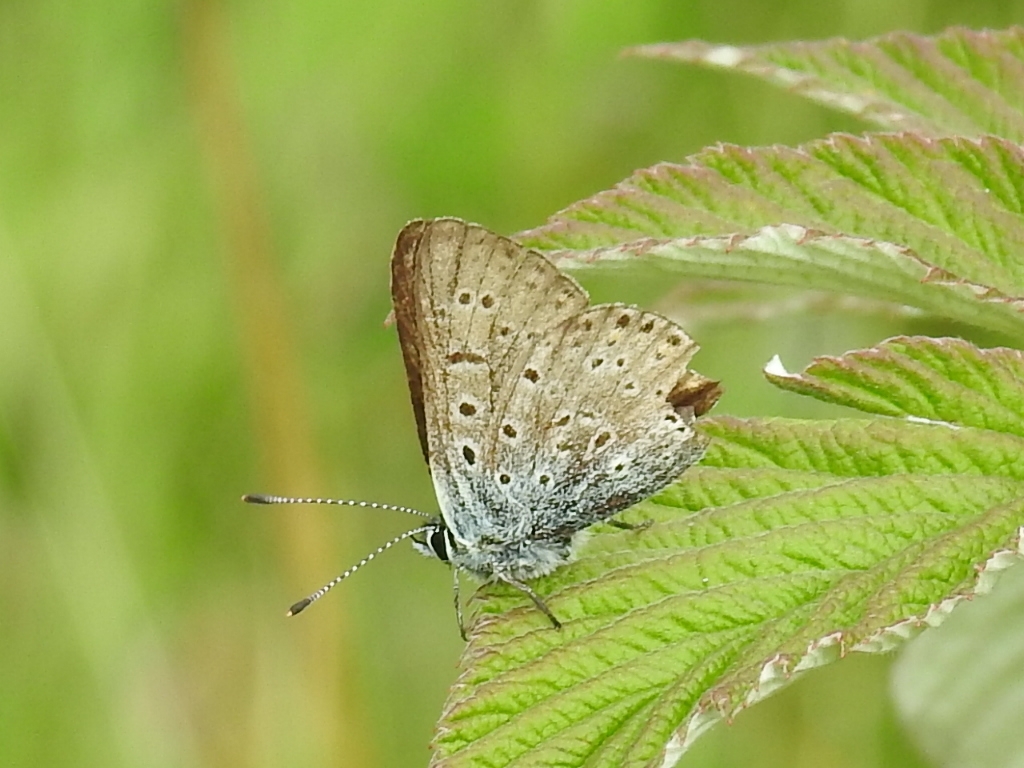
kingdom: Animalia
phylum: Arthropoda
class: Insecta
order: Lepidoptera
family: Lycaenidae
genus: Loweia
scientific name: Loweia tityrus
